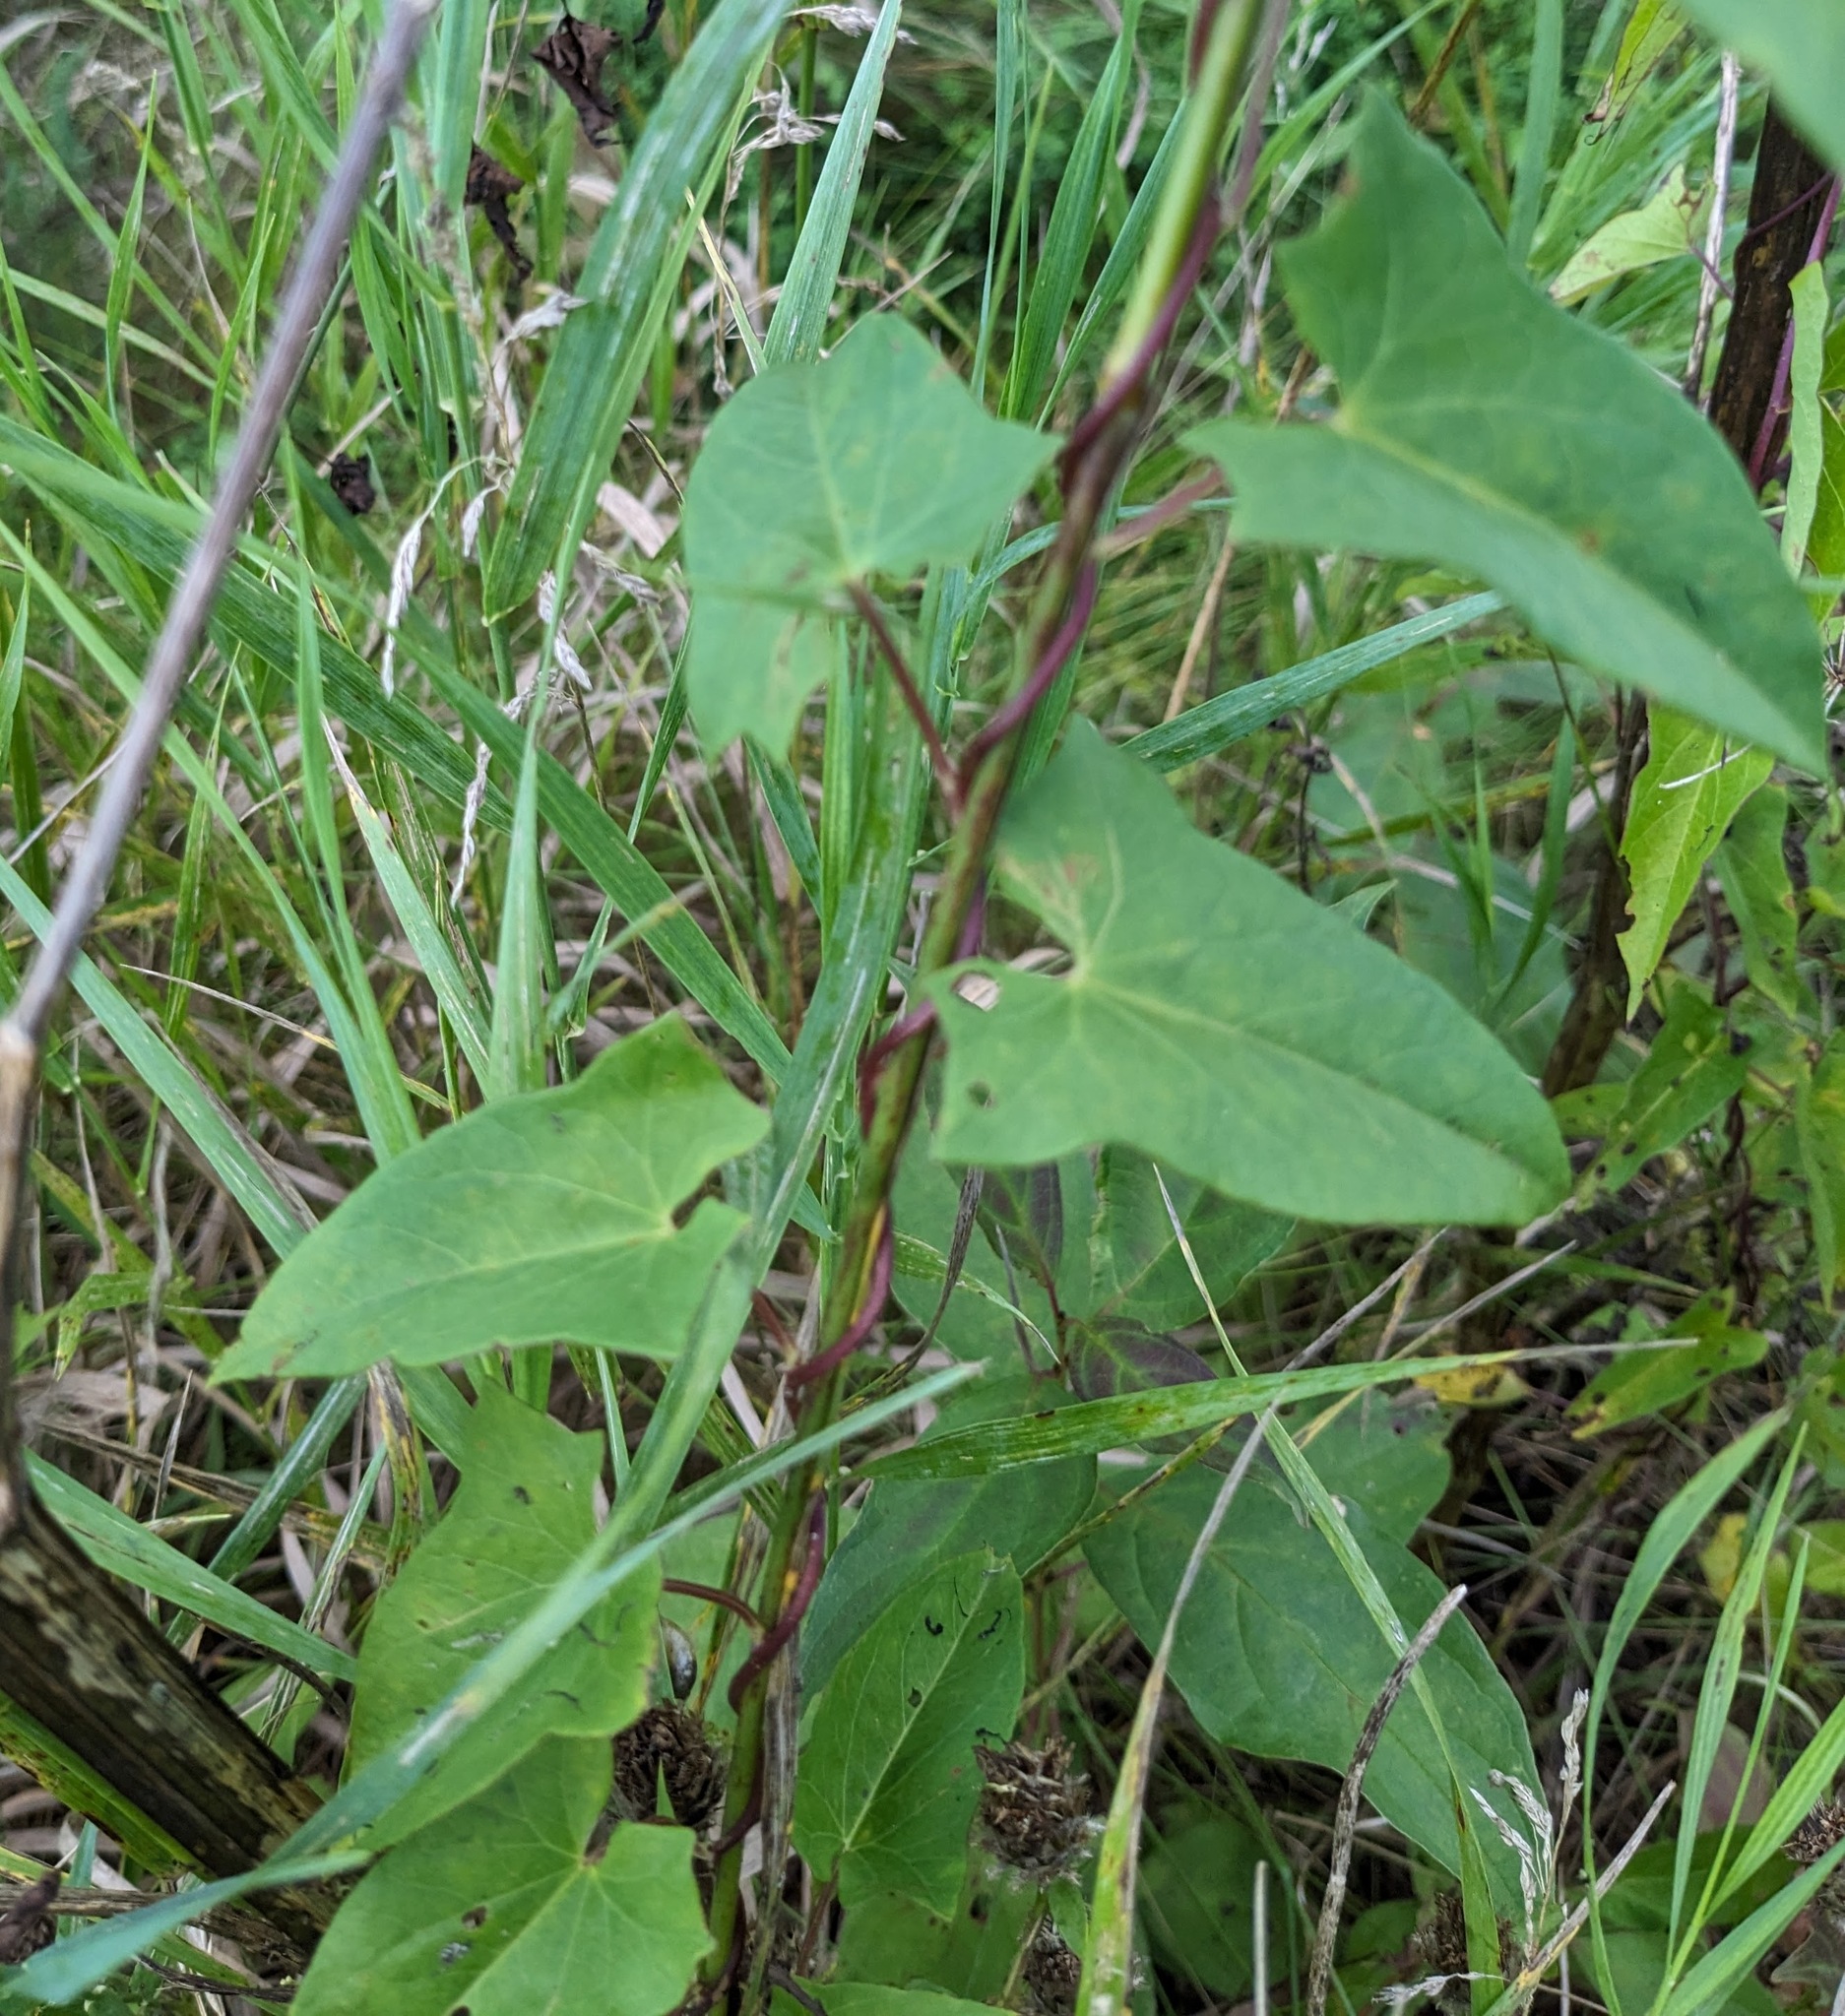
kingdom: Plantae
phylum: Tracheophyta
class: Magnoliopsida
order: Solanales
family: Convolvulaceae
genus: Calystegia
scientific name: Calystegia sepium
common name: Hedge bindweed
